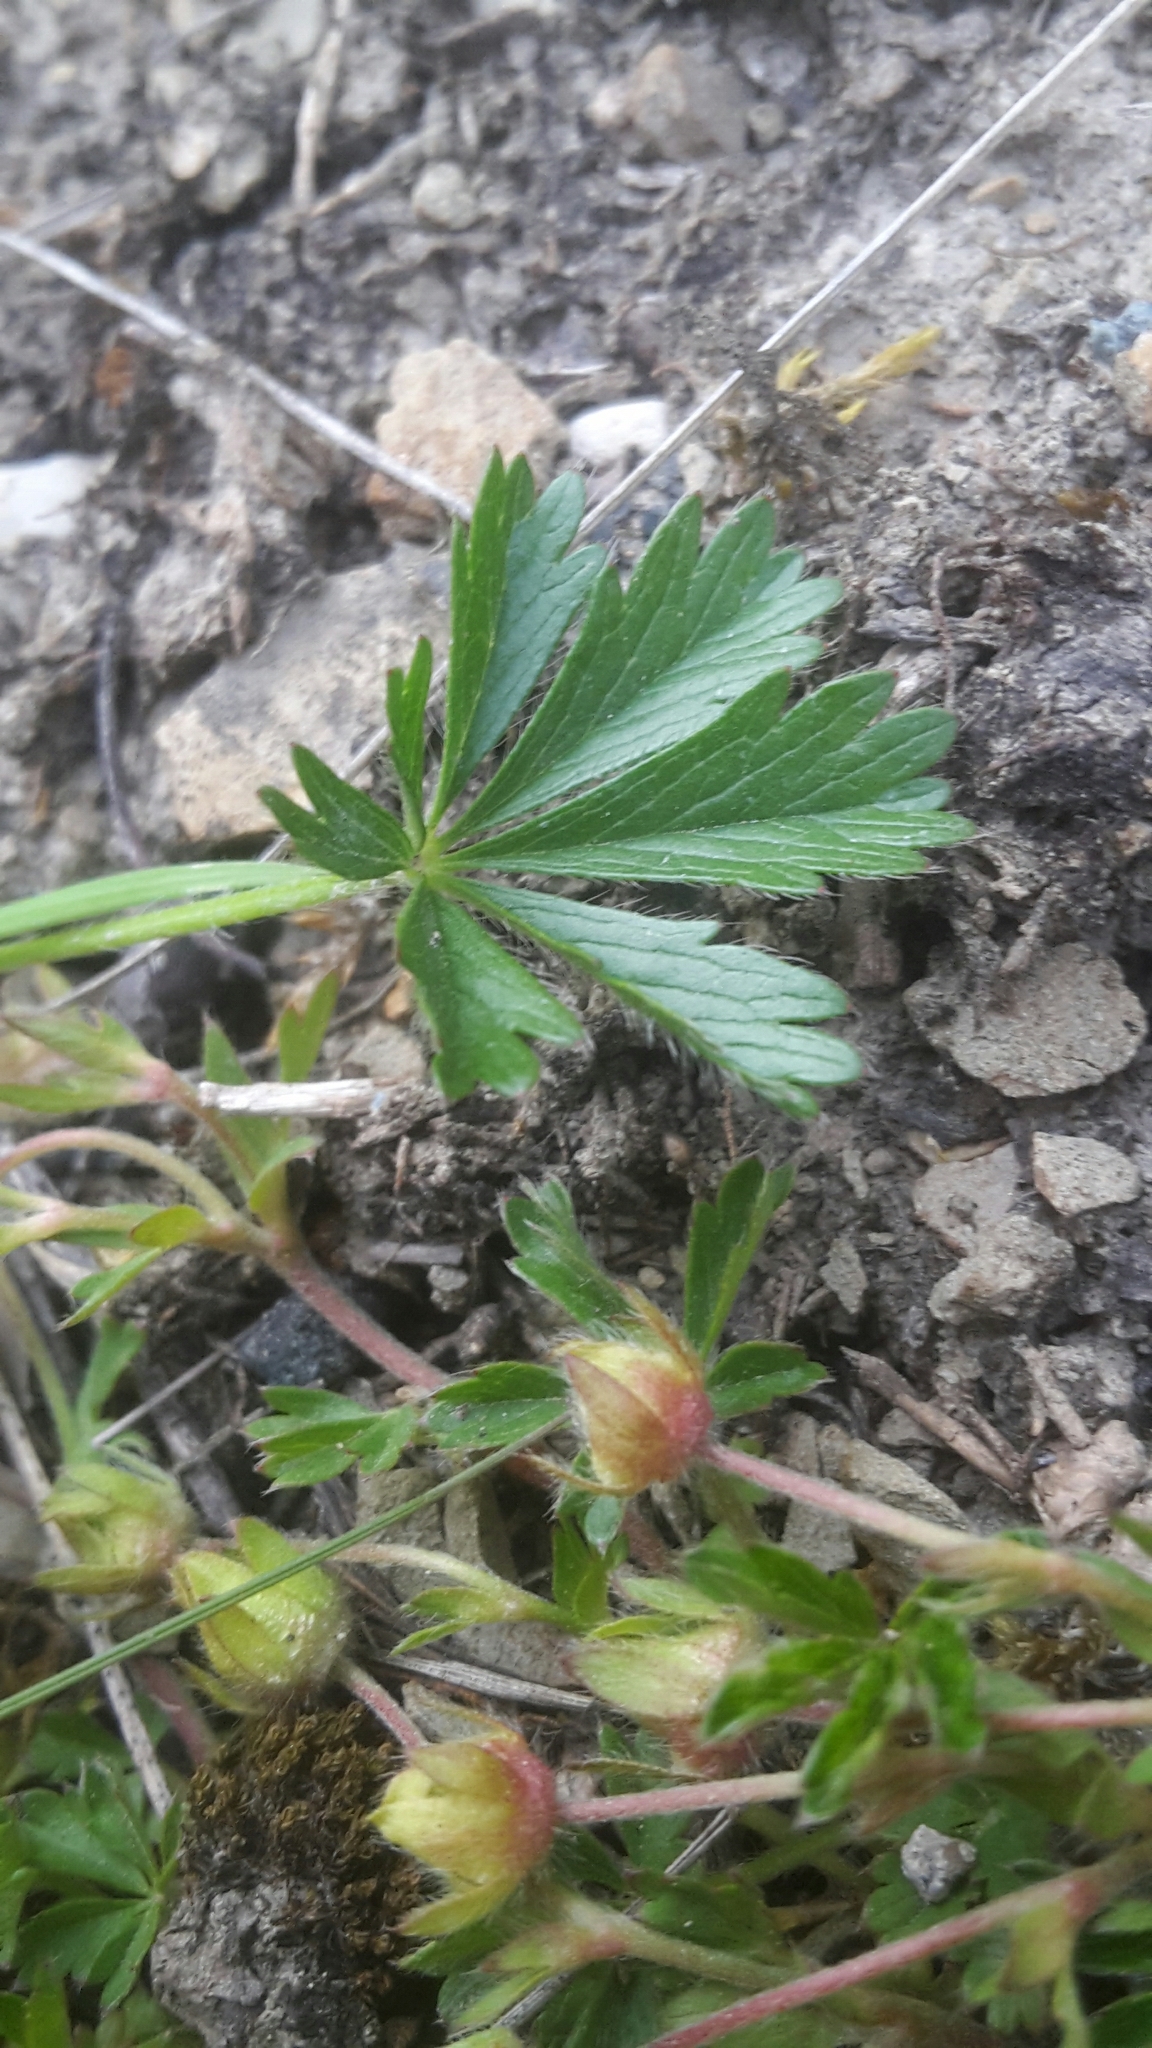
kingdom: Plantae
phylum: Tracheophyta
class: Magnoliopsida
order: Rosales
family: Rosaceae
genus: Potentilla
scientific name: Potentilla verna
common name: Spring cinquefoil
